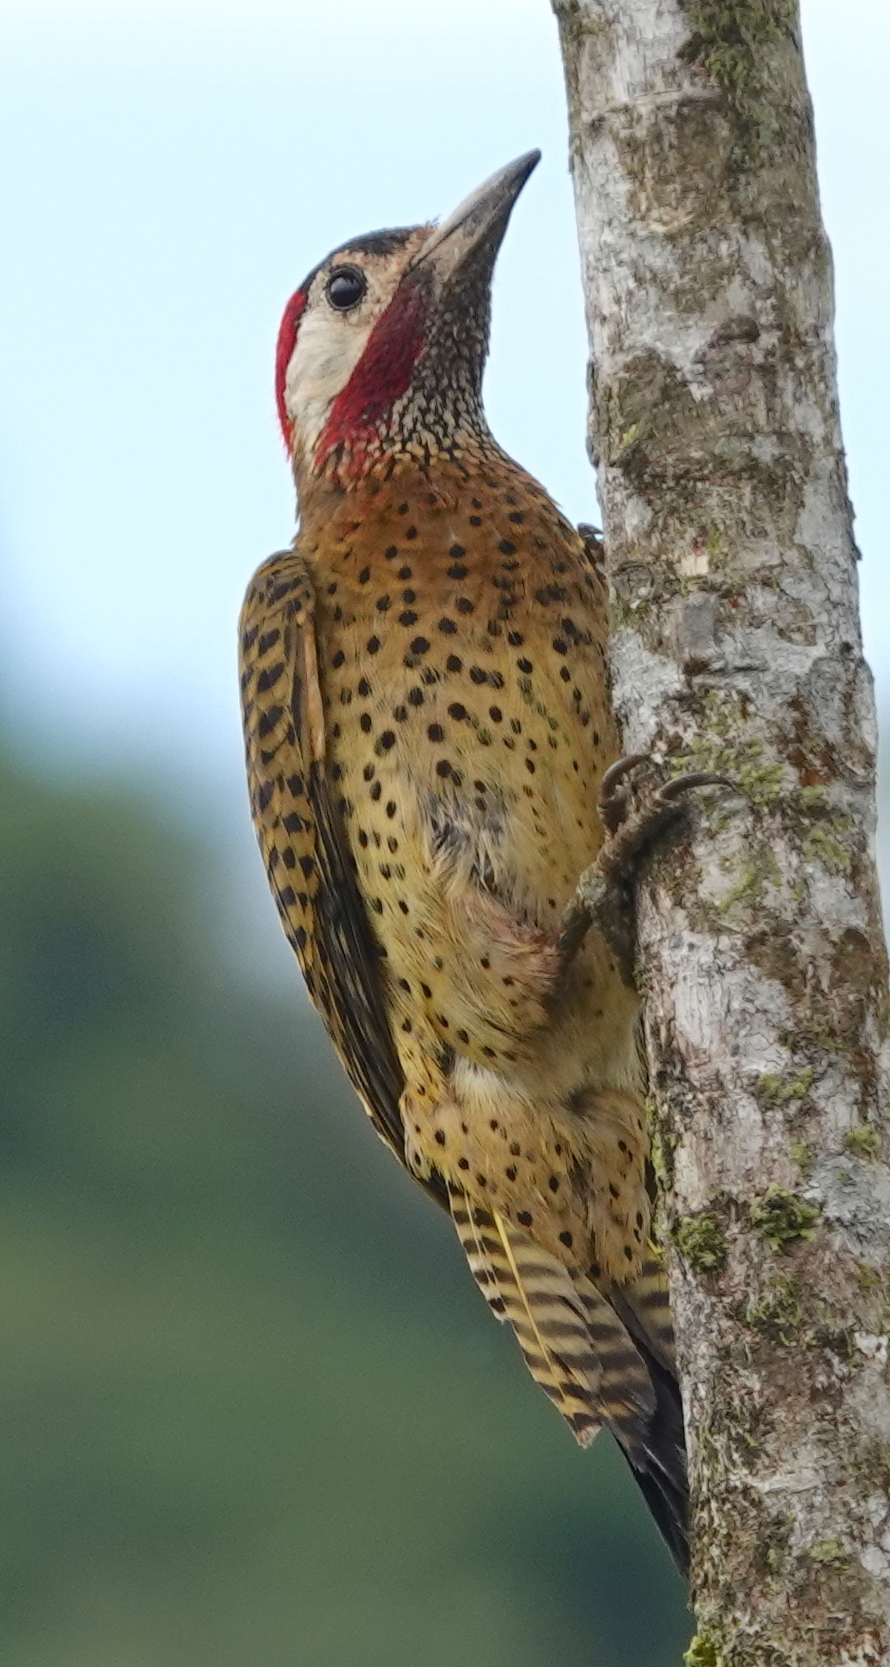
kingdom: Animalia
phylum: Chordata
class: Aves
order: Piciformes
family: Picidae
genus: Colaptes
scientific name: Colaptes punctigula
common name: Spot-breasted woodpecker
